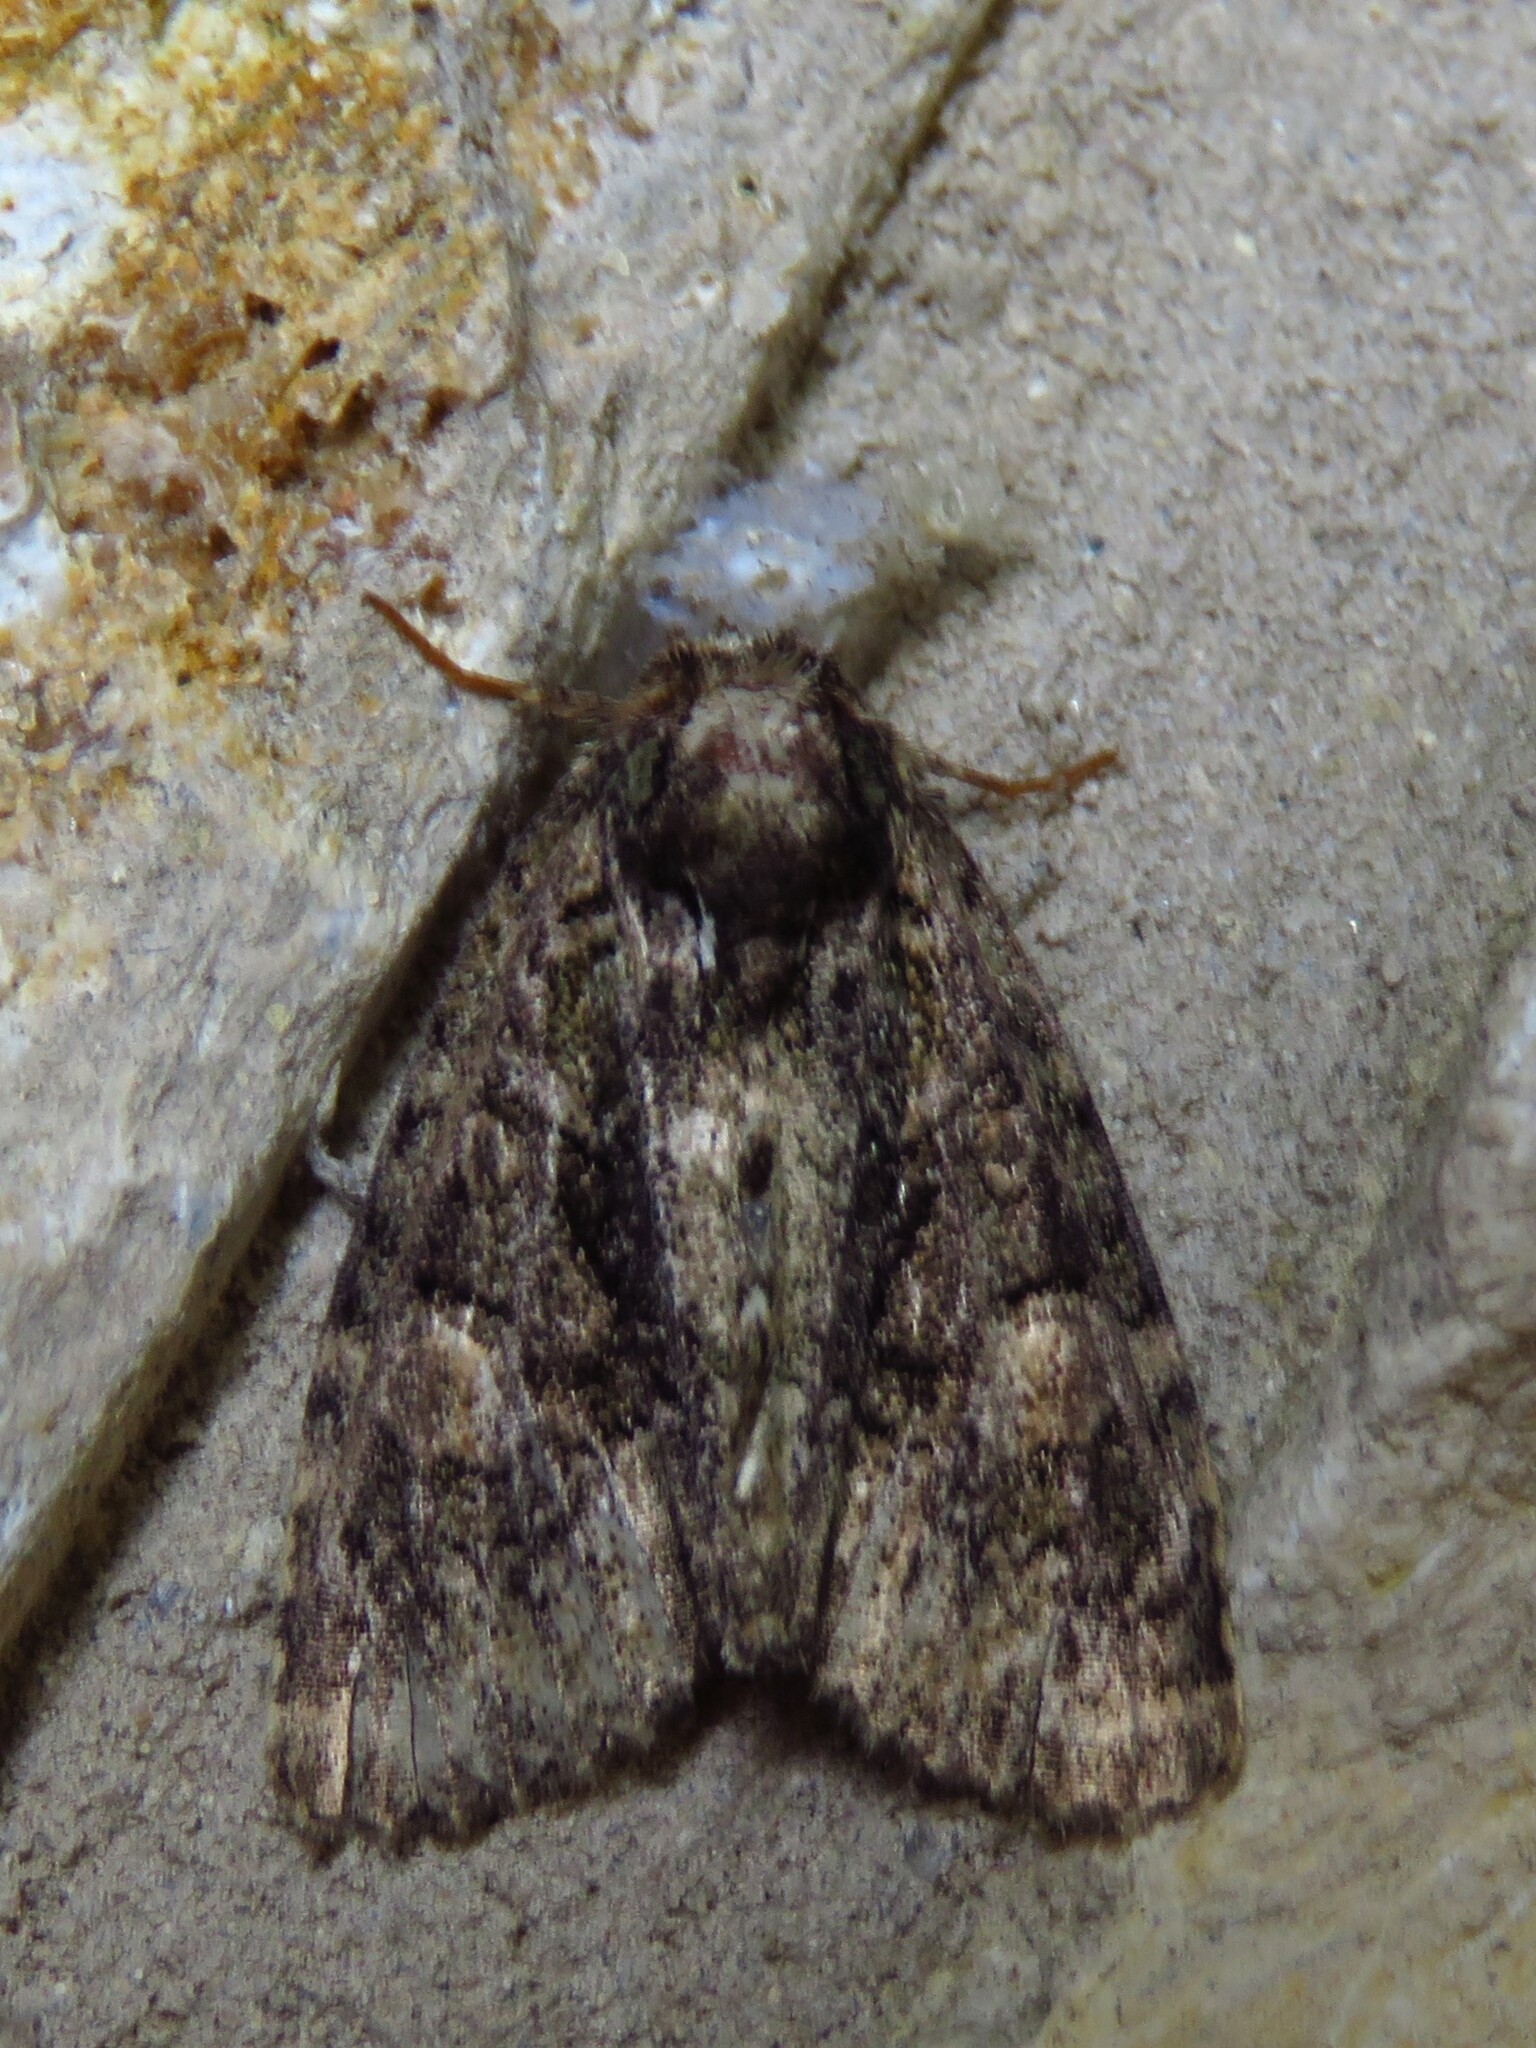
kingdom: Animalia
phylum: Arthropoda
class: Insecta
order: Lepidoptera
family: Noctuidae
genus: Phosphila
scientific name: Phosphila miselioides
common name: Spotted phosphila moth
